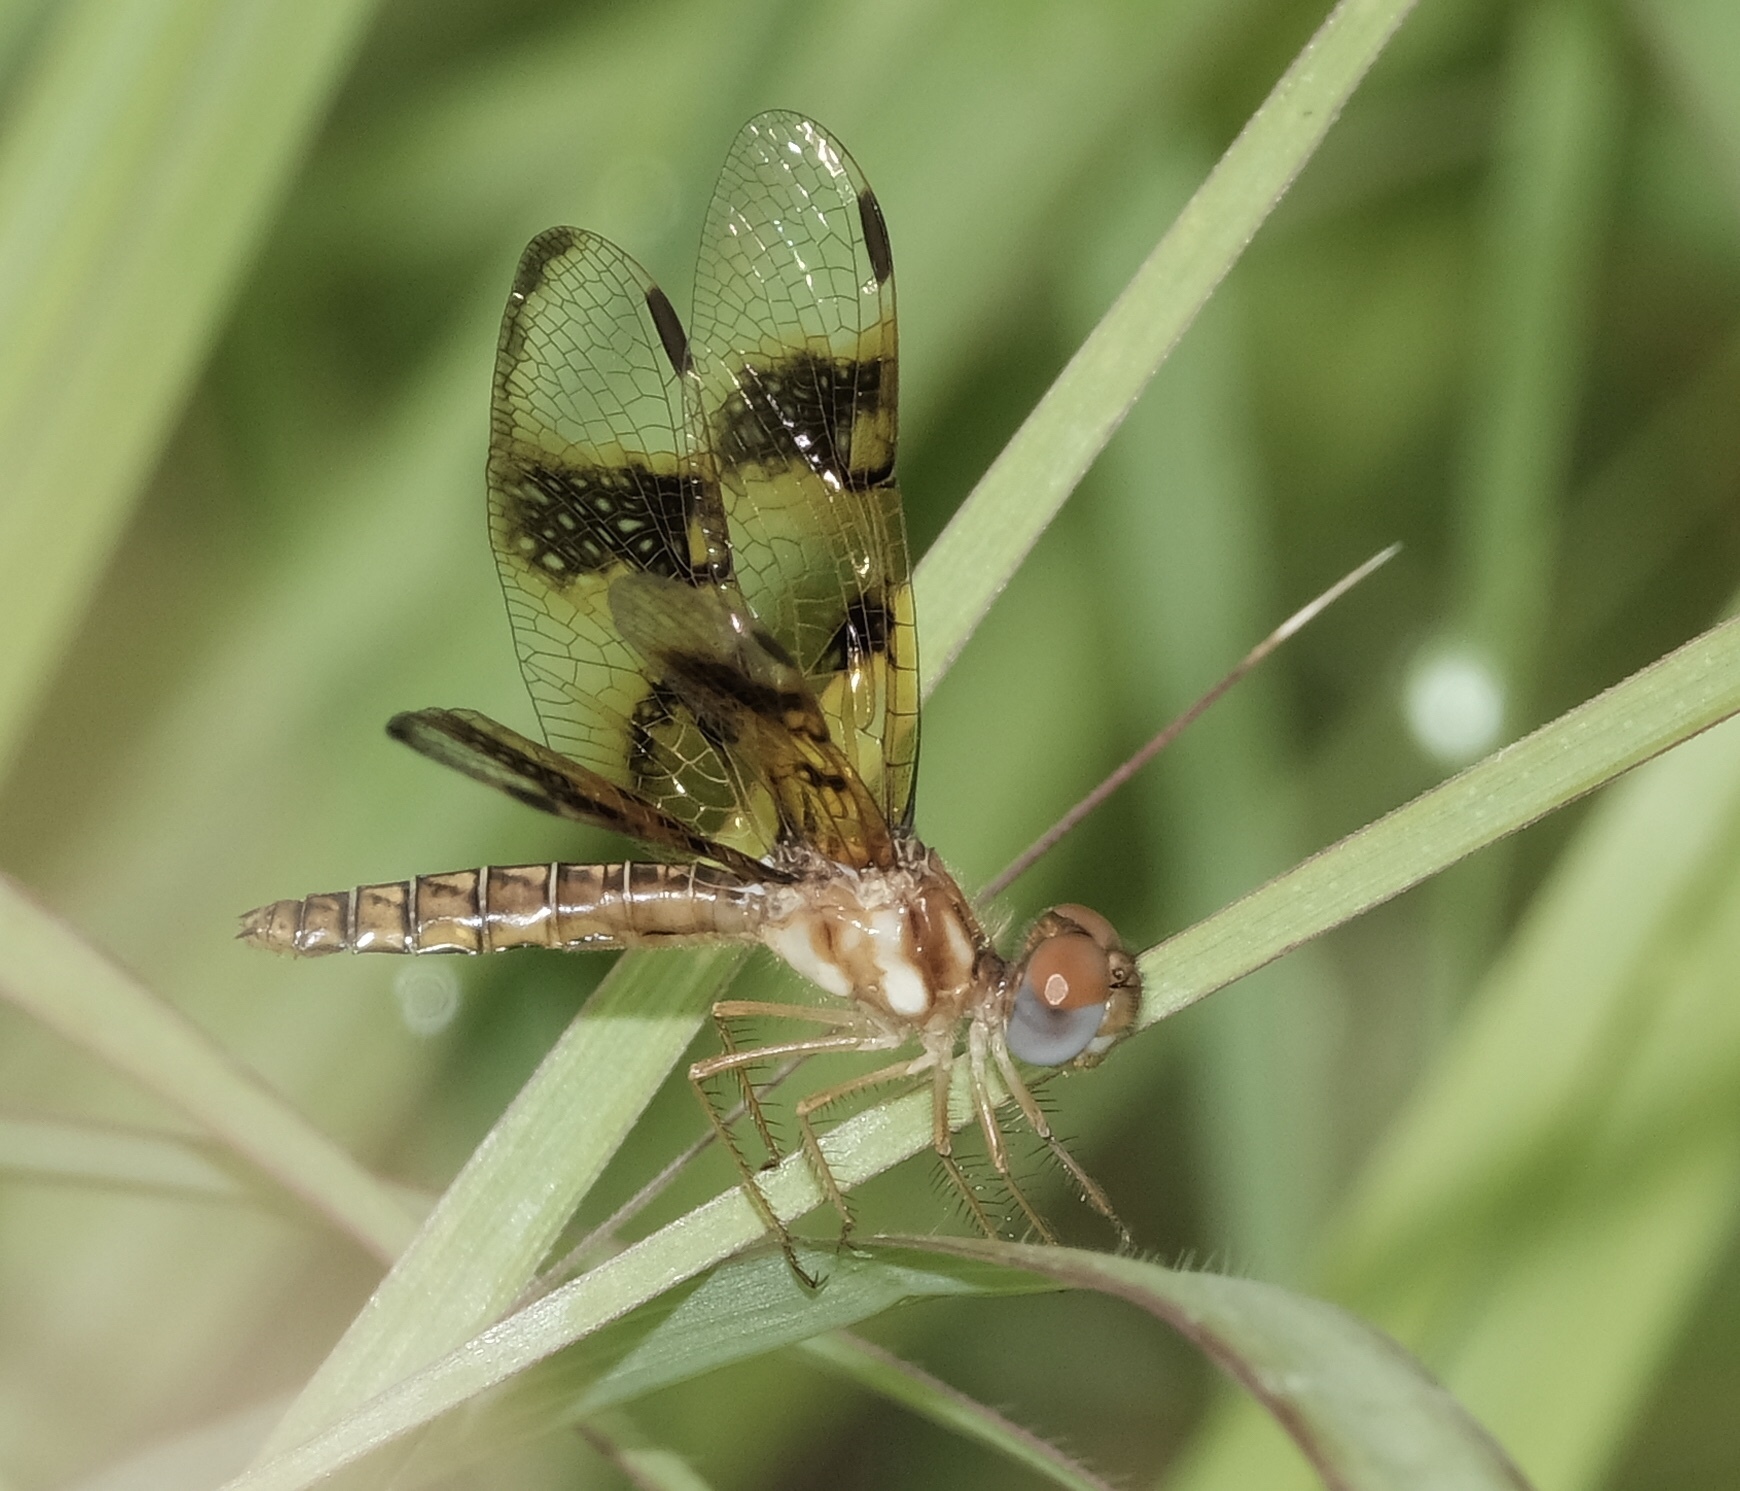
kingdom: Animalia
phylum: Arthropoda
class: Insecta
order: Odonata
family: Libellulidae
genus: Perithemis
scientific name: Perithemis tenera
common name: Eastern amberwing
